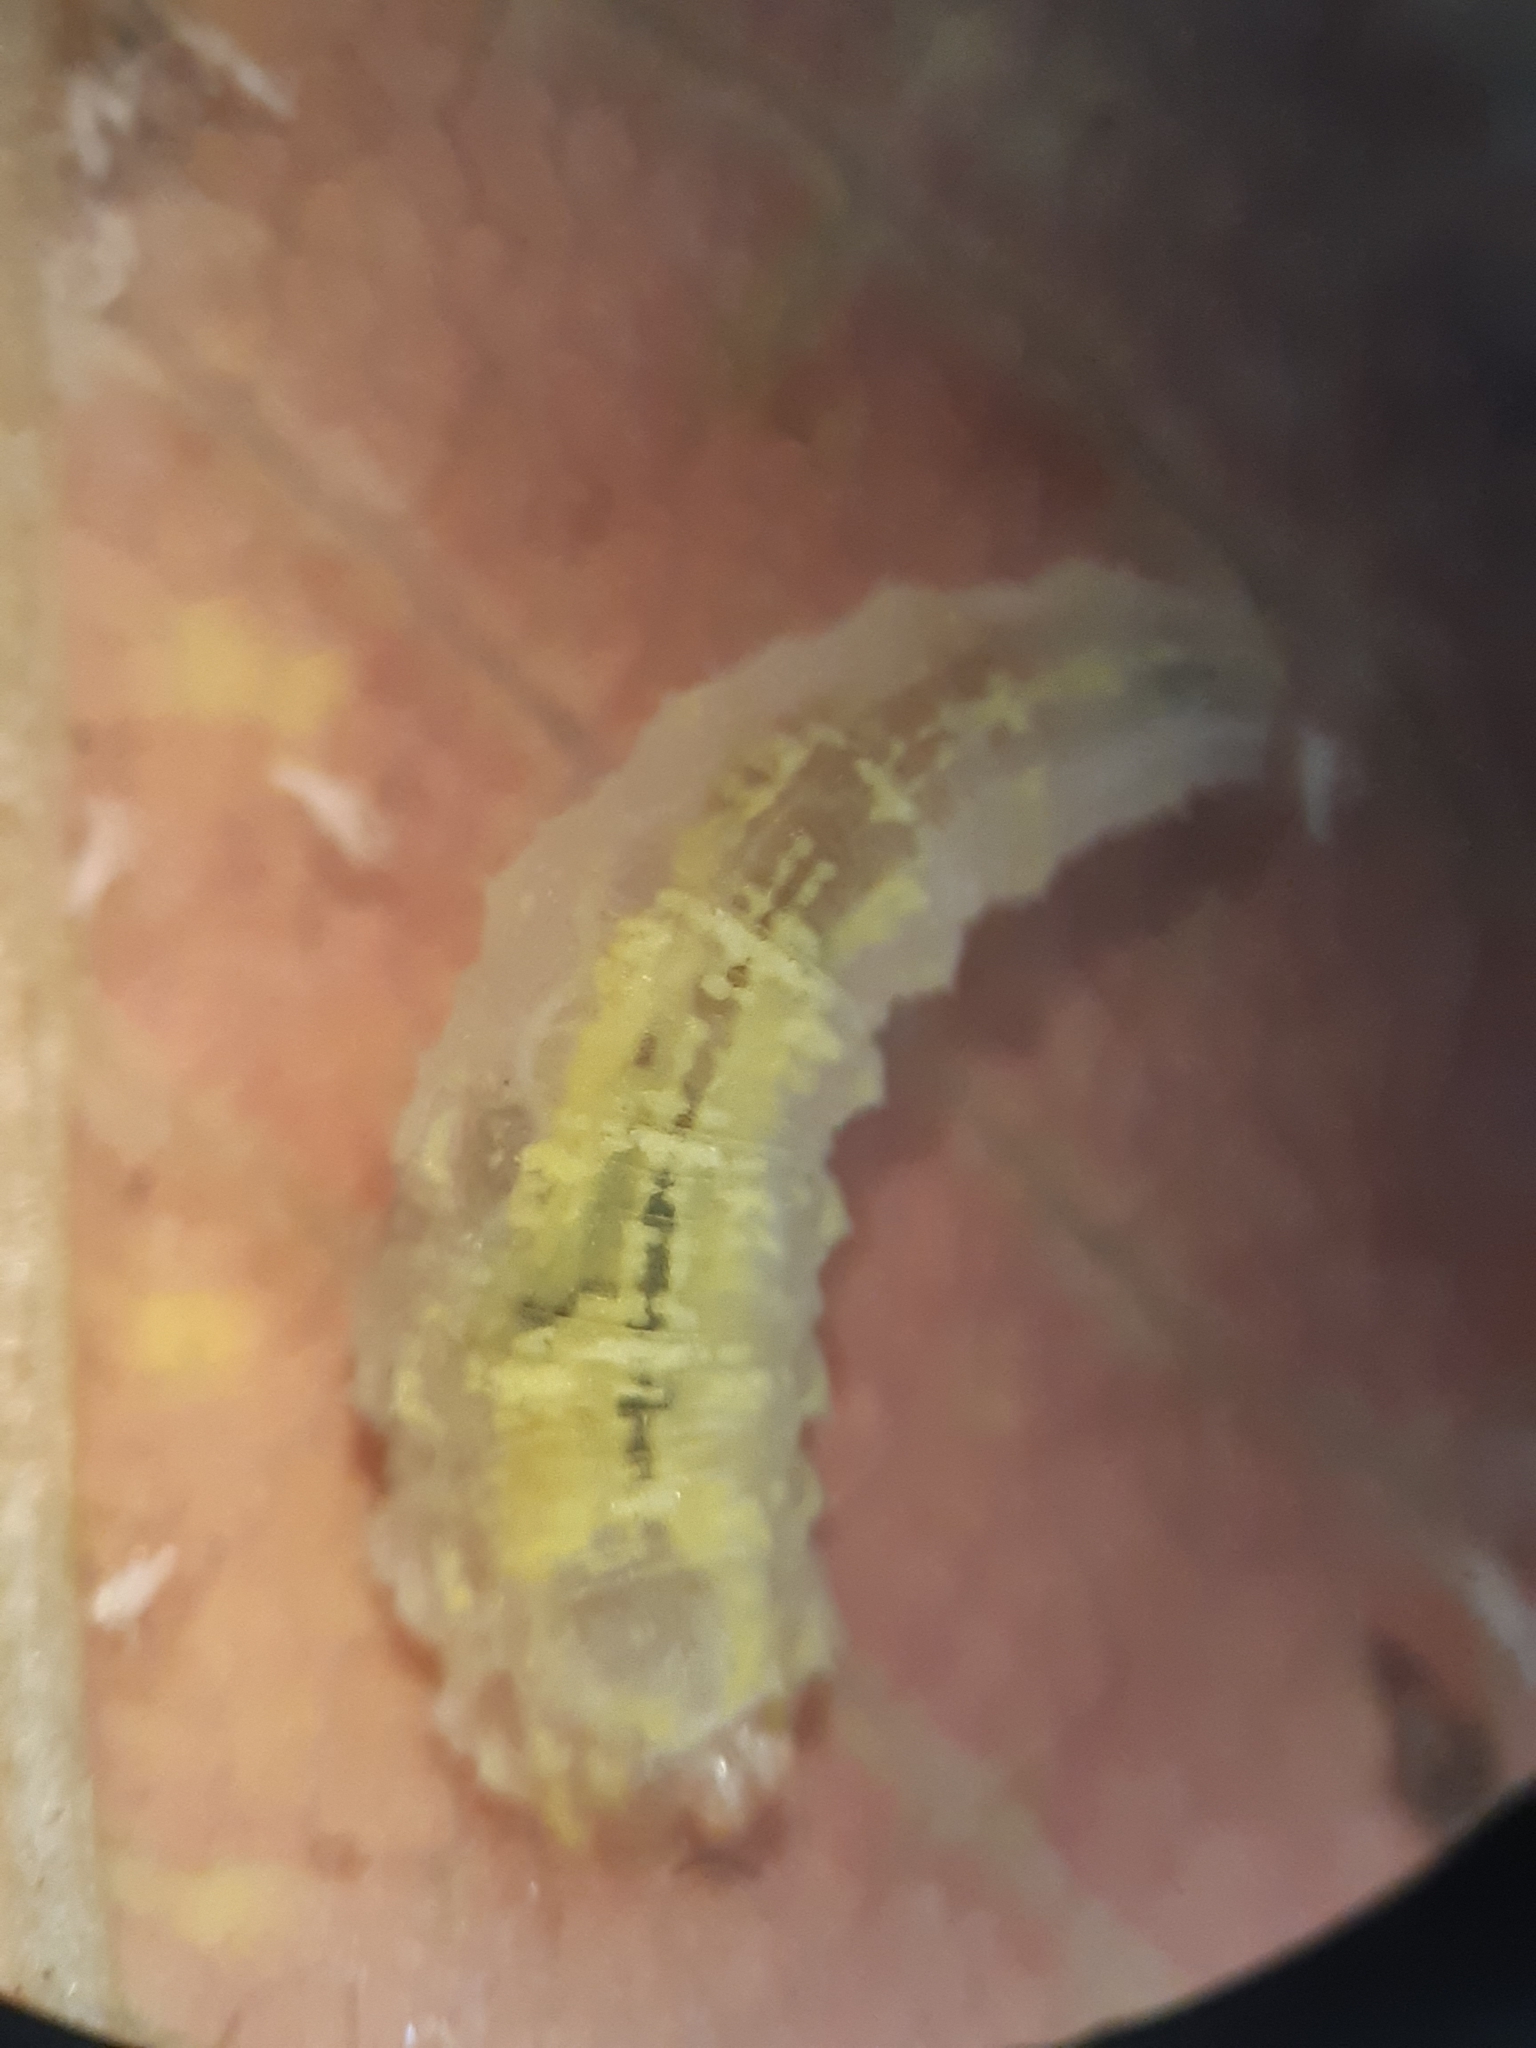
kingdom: Animalia
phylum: Arthropoda
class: Insecta
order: Diptera
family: Syrphidae
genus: Syrphus
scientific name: Syrphus
